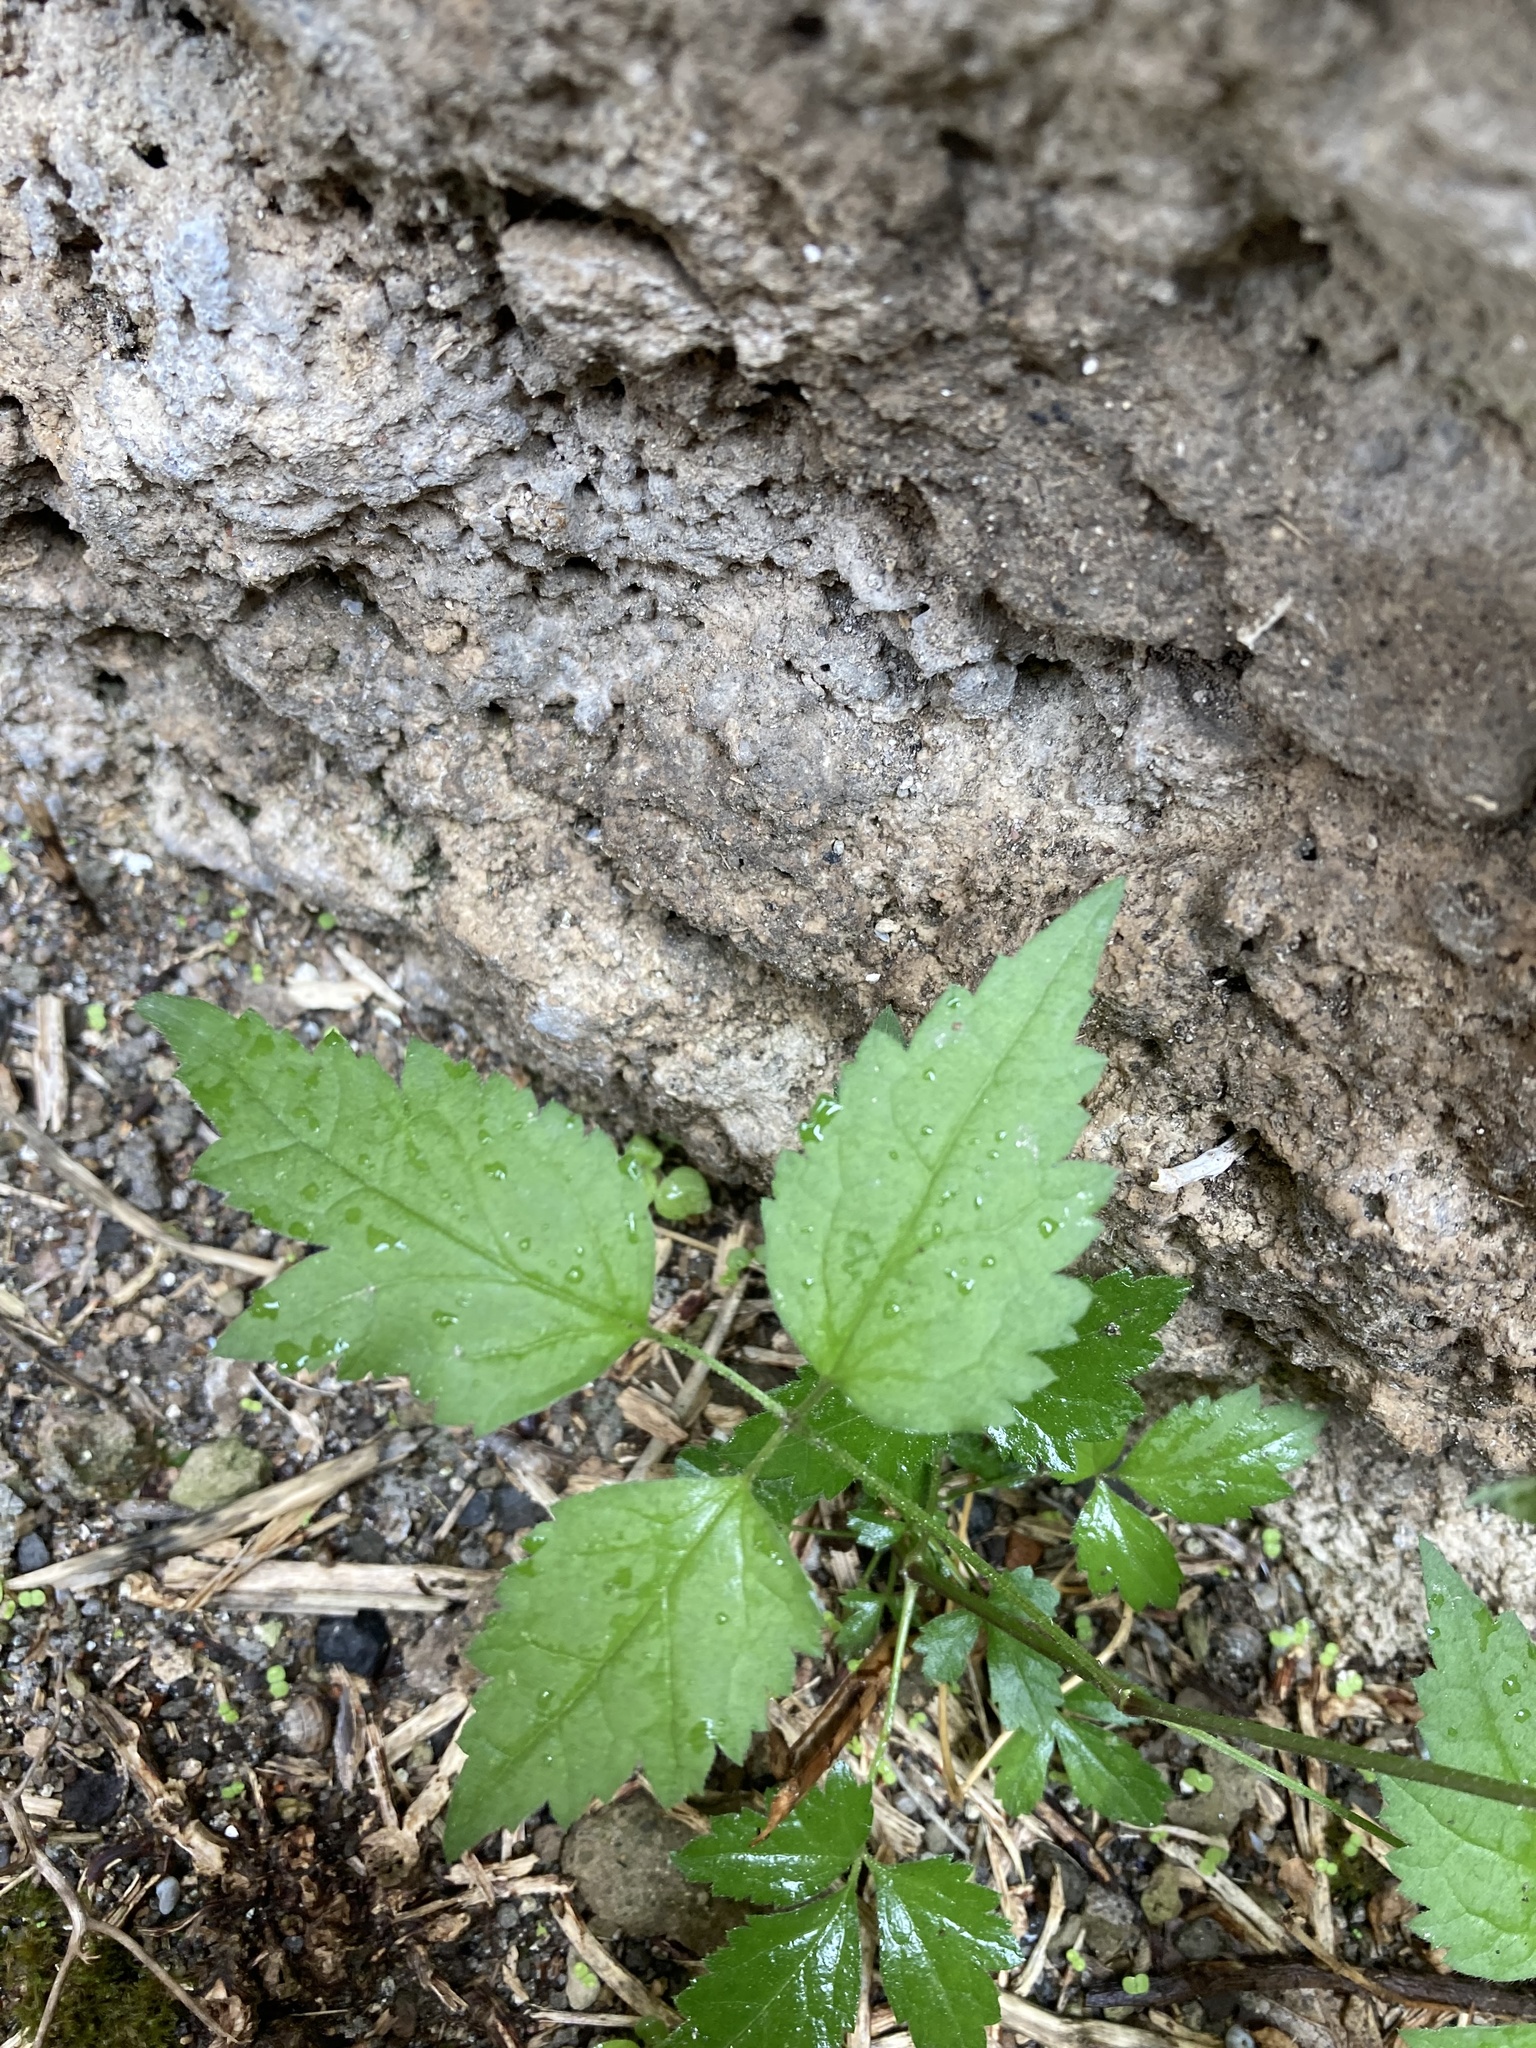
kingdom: Plantae
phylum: Tracheophyta
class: Magnoliopsida
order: Ranunculales
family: Ranunculaceae
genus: Clematis
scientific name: Clematis vitalba
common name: Evergreen clematis
